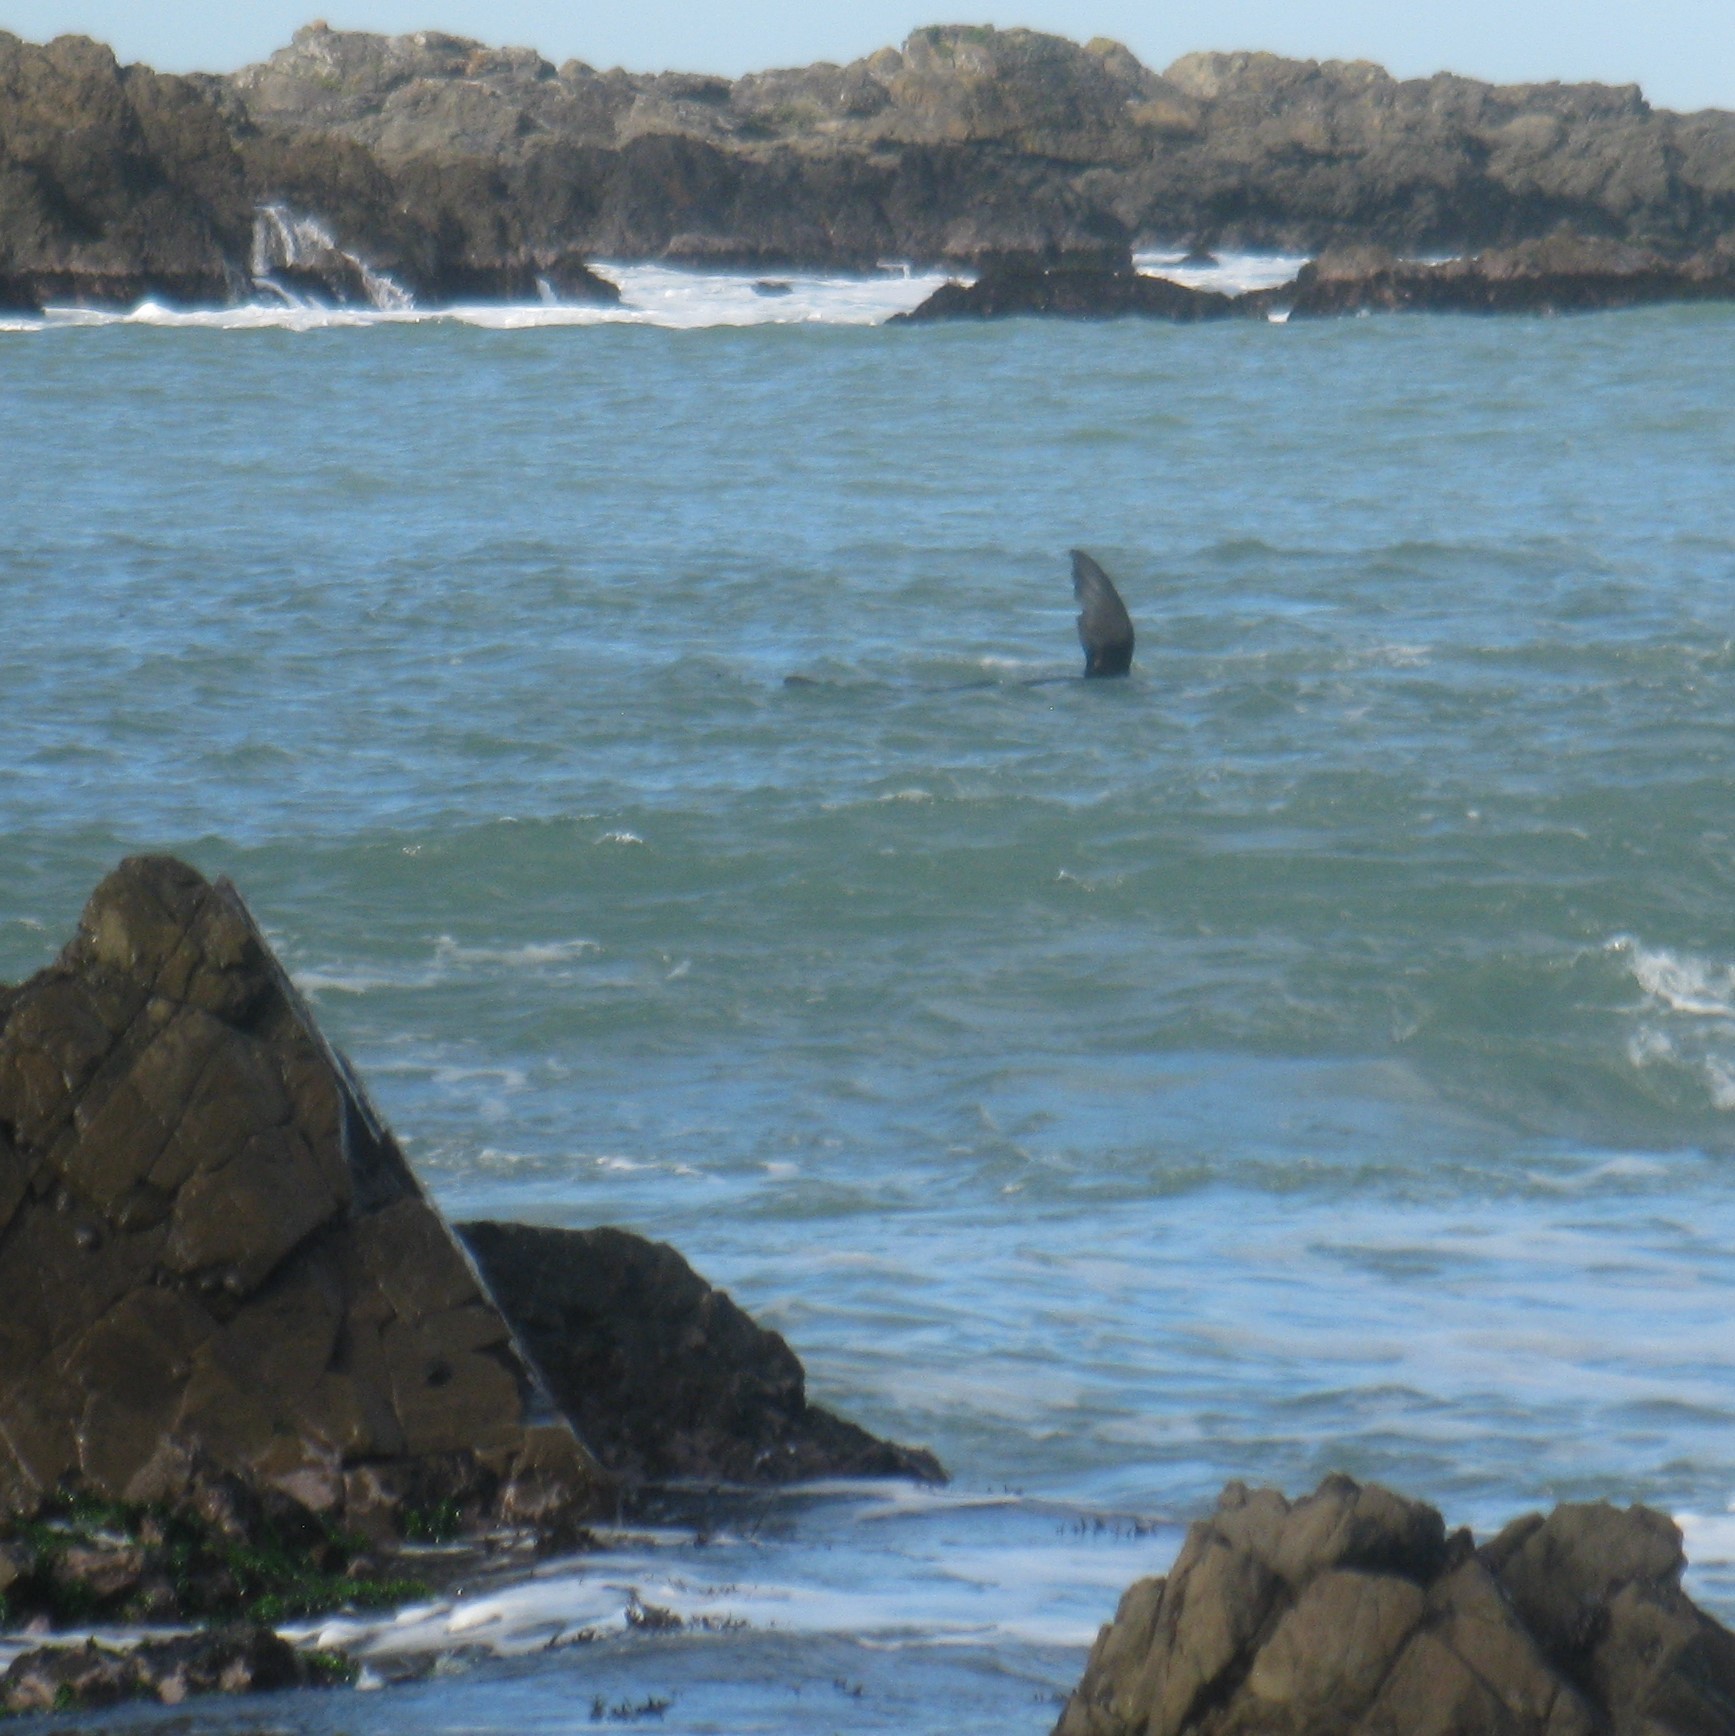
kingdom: Animalia
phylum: Chordata
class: Mammalia
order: Carnivora
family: Otariidae
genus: Arctocephalus
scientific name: Arctocephalus forsteri
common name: New zealand fur seal
